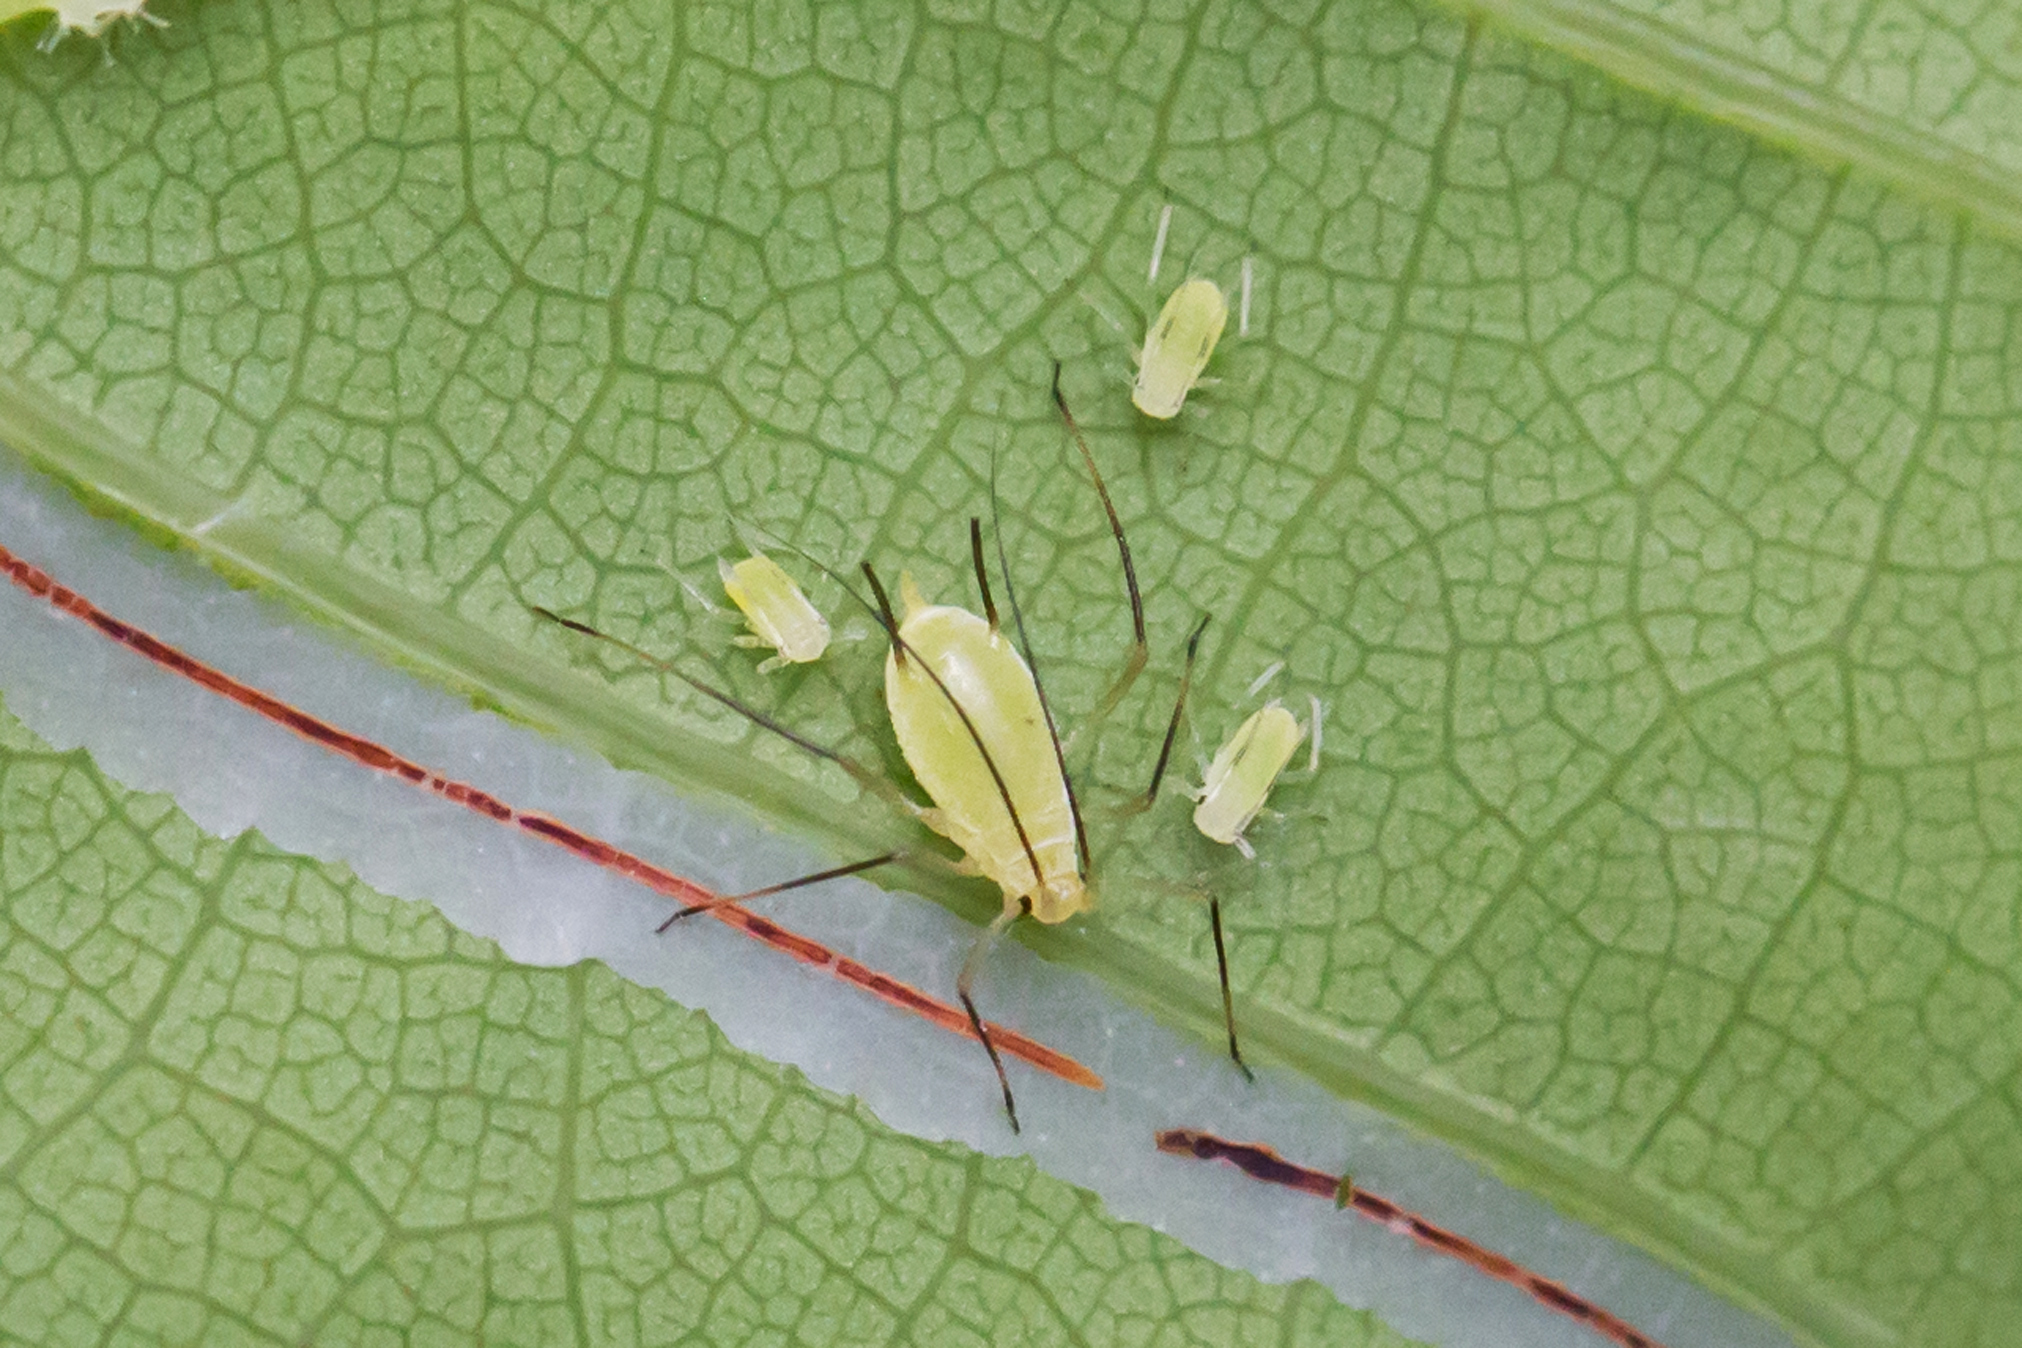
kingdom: Animalia
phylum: Arthropoda
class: Insecta
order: Hemiptera
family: Aphididae
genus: Illinoia
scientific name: Illinoia liriodendri
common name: Tuliptree aphid
